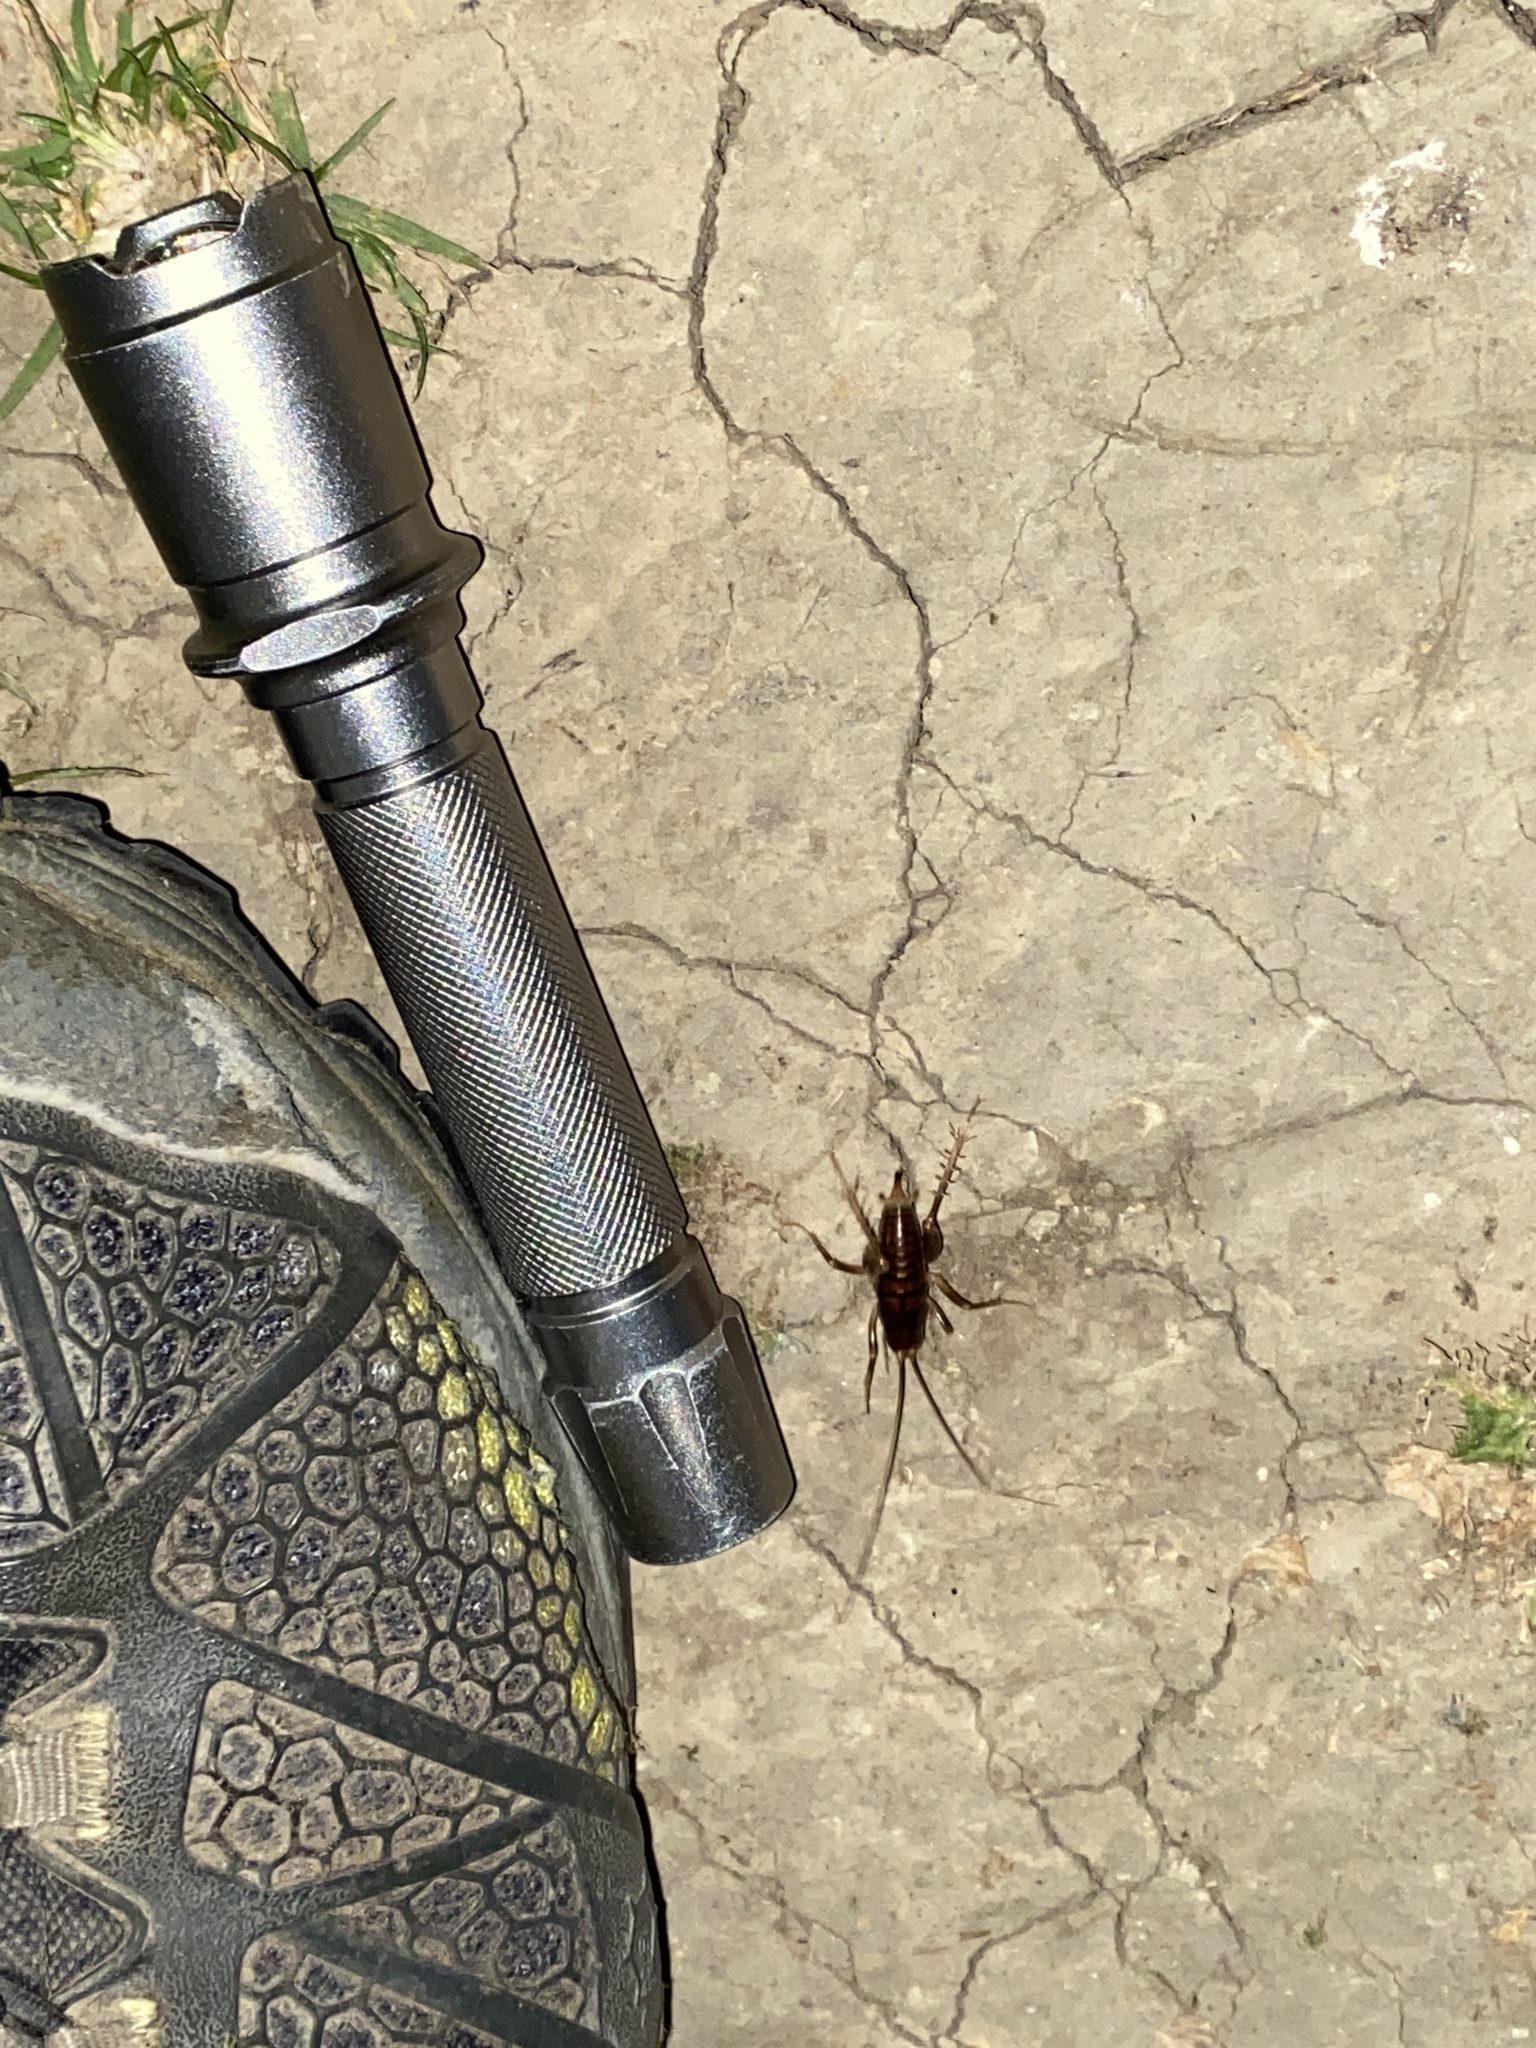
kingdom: Animalia
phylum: Arthropoda
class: Insecta
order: Orthoptera
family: Rhaphidophoridae
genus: Ceuthophilus
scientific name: Ceuthophilus californianus
